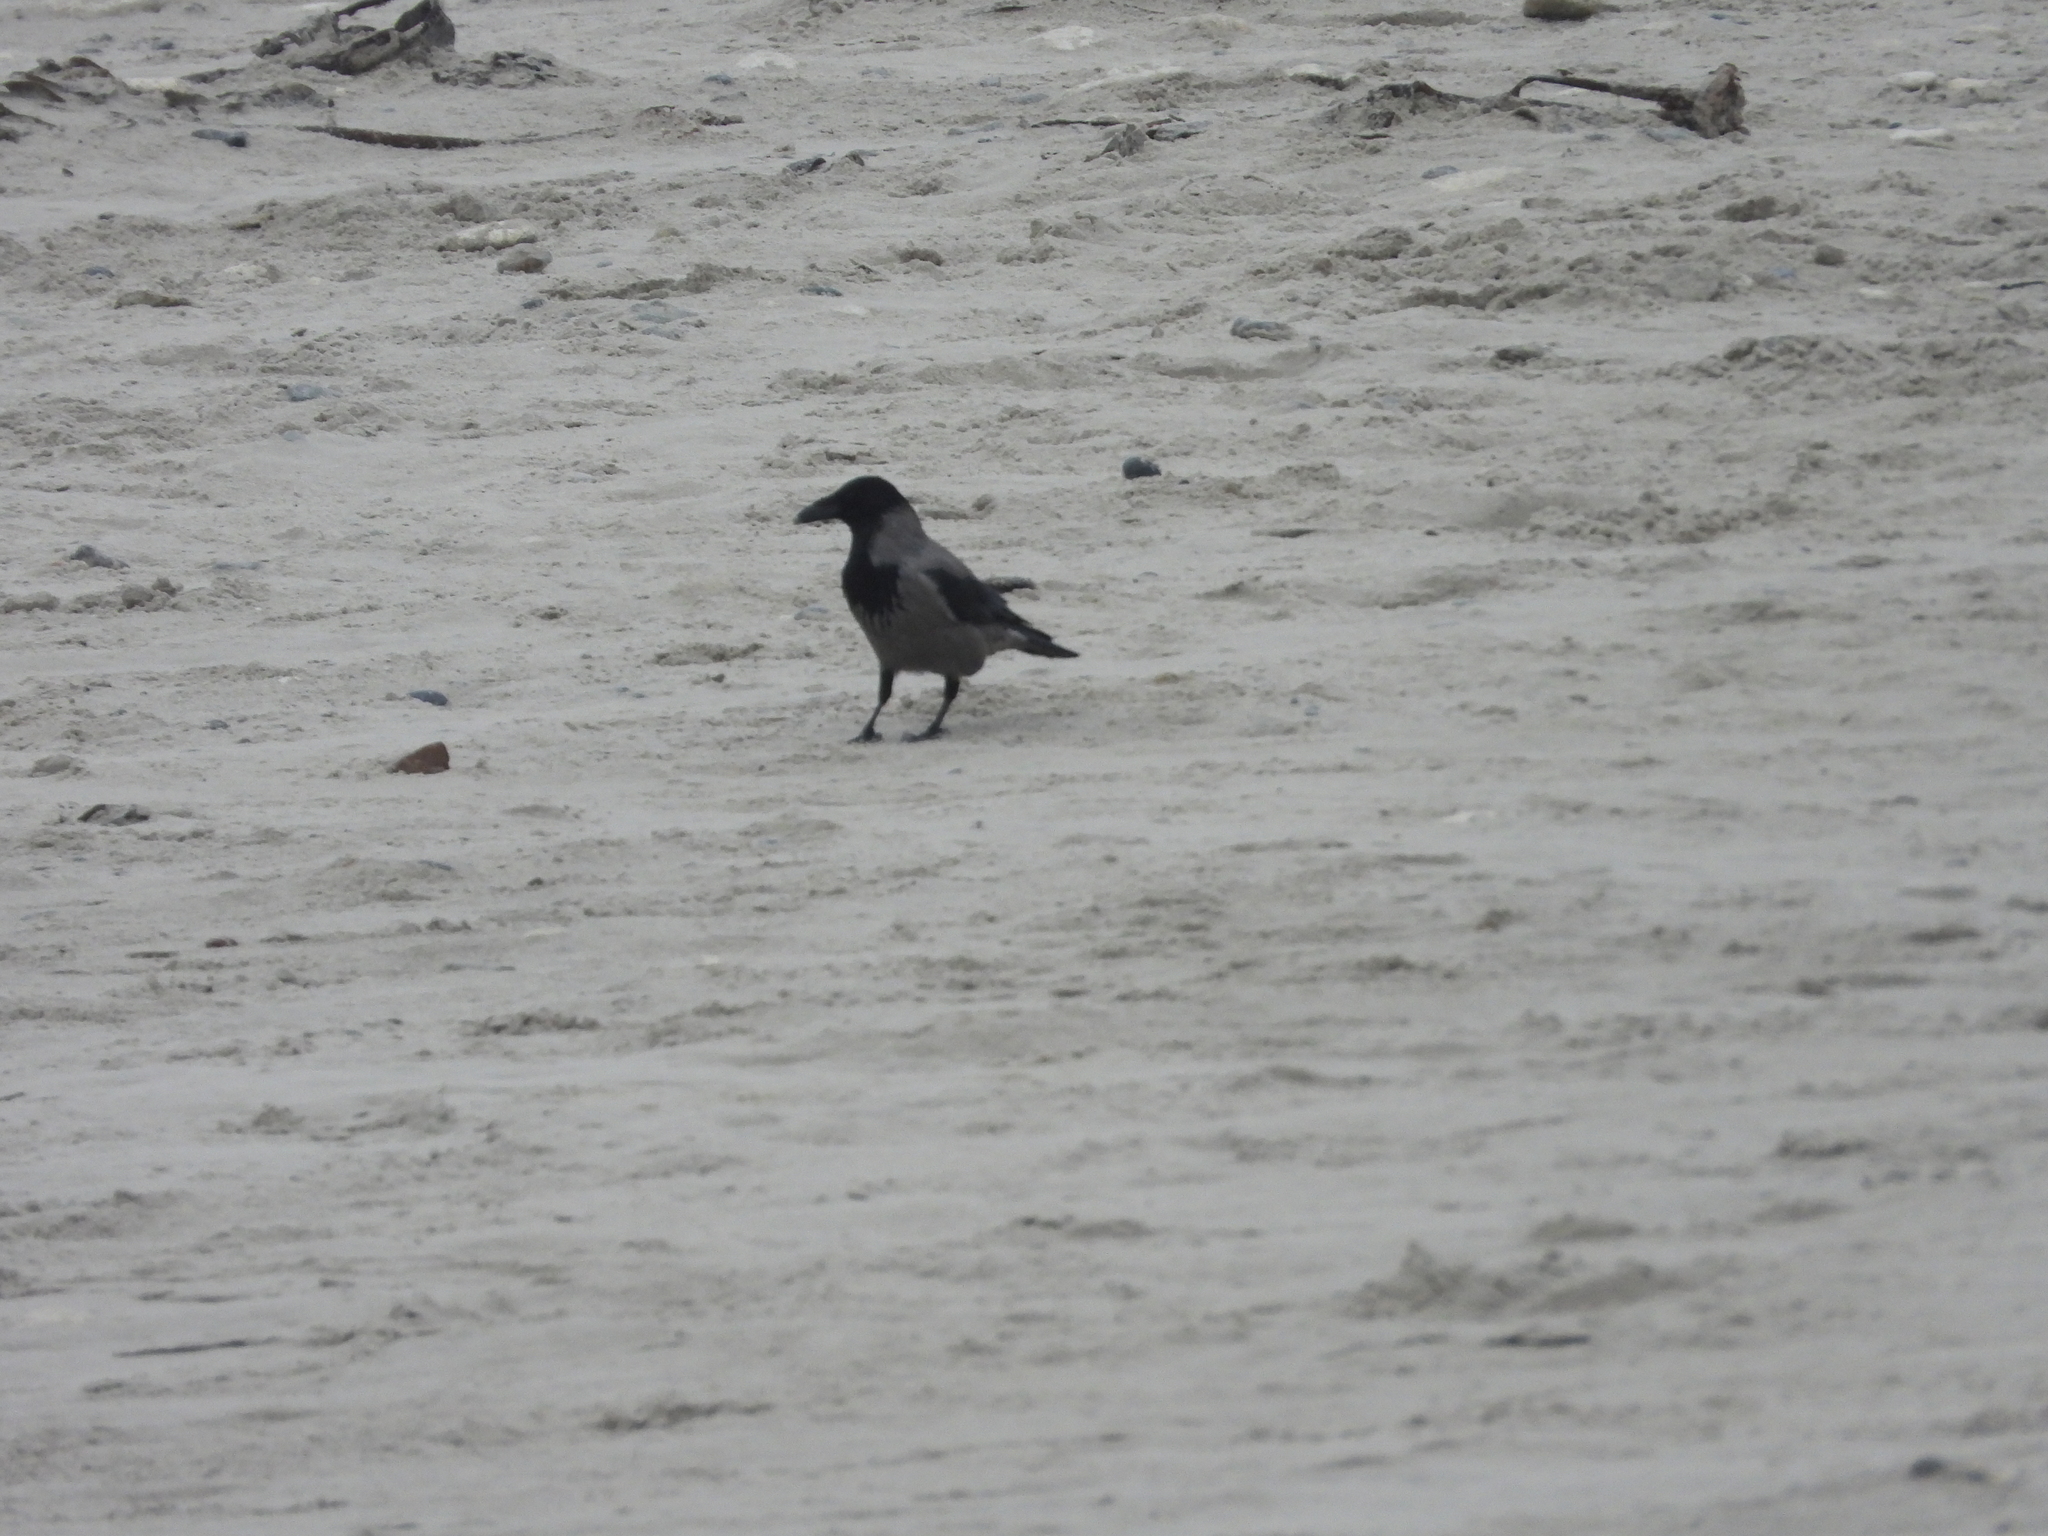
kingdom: Animalia
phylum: Chordata
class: Aves
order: Passeriformes
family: Corvidae
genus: Corvus
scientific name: Corvus cornix
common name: Hooded crow
